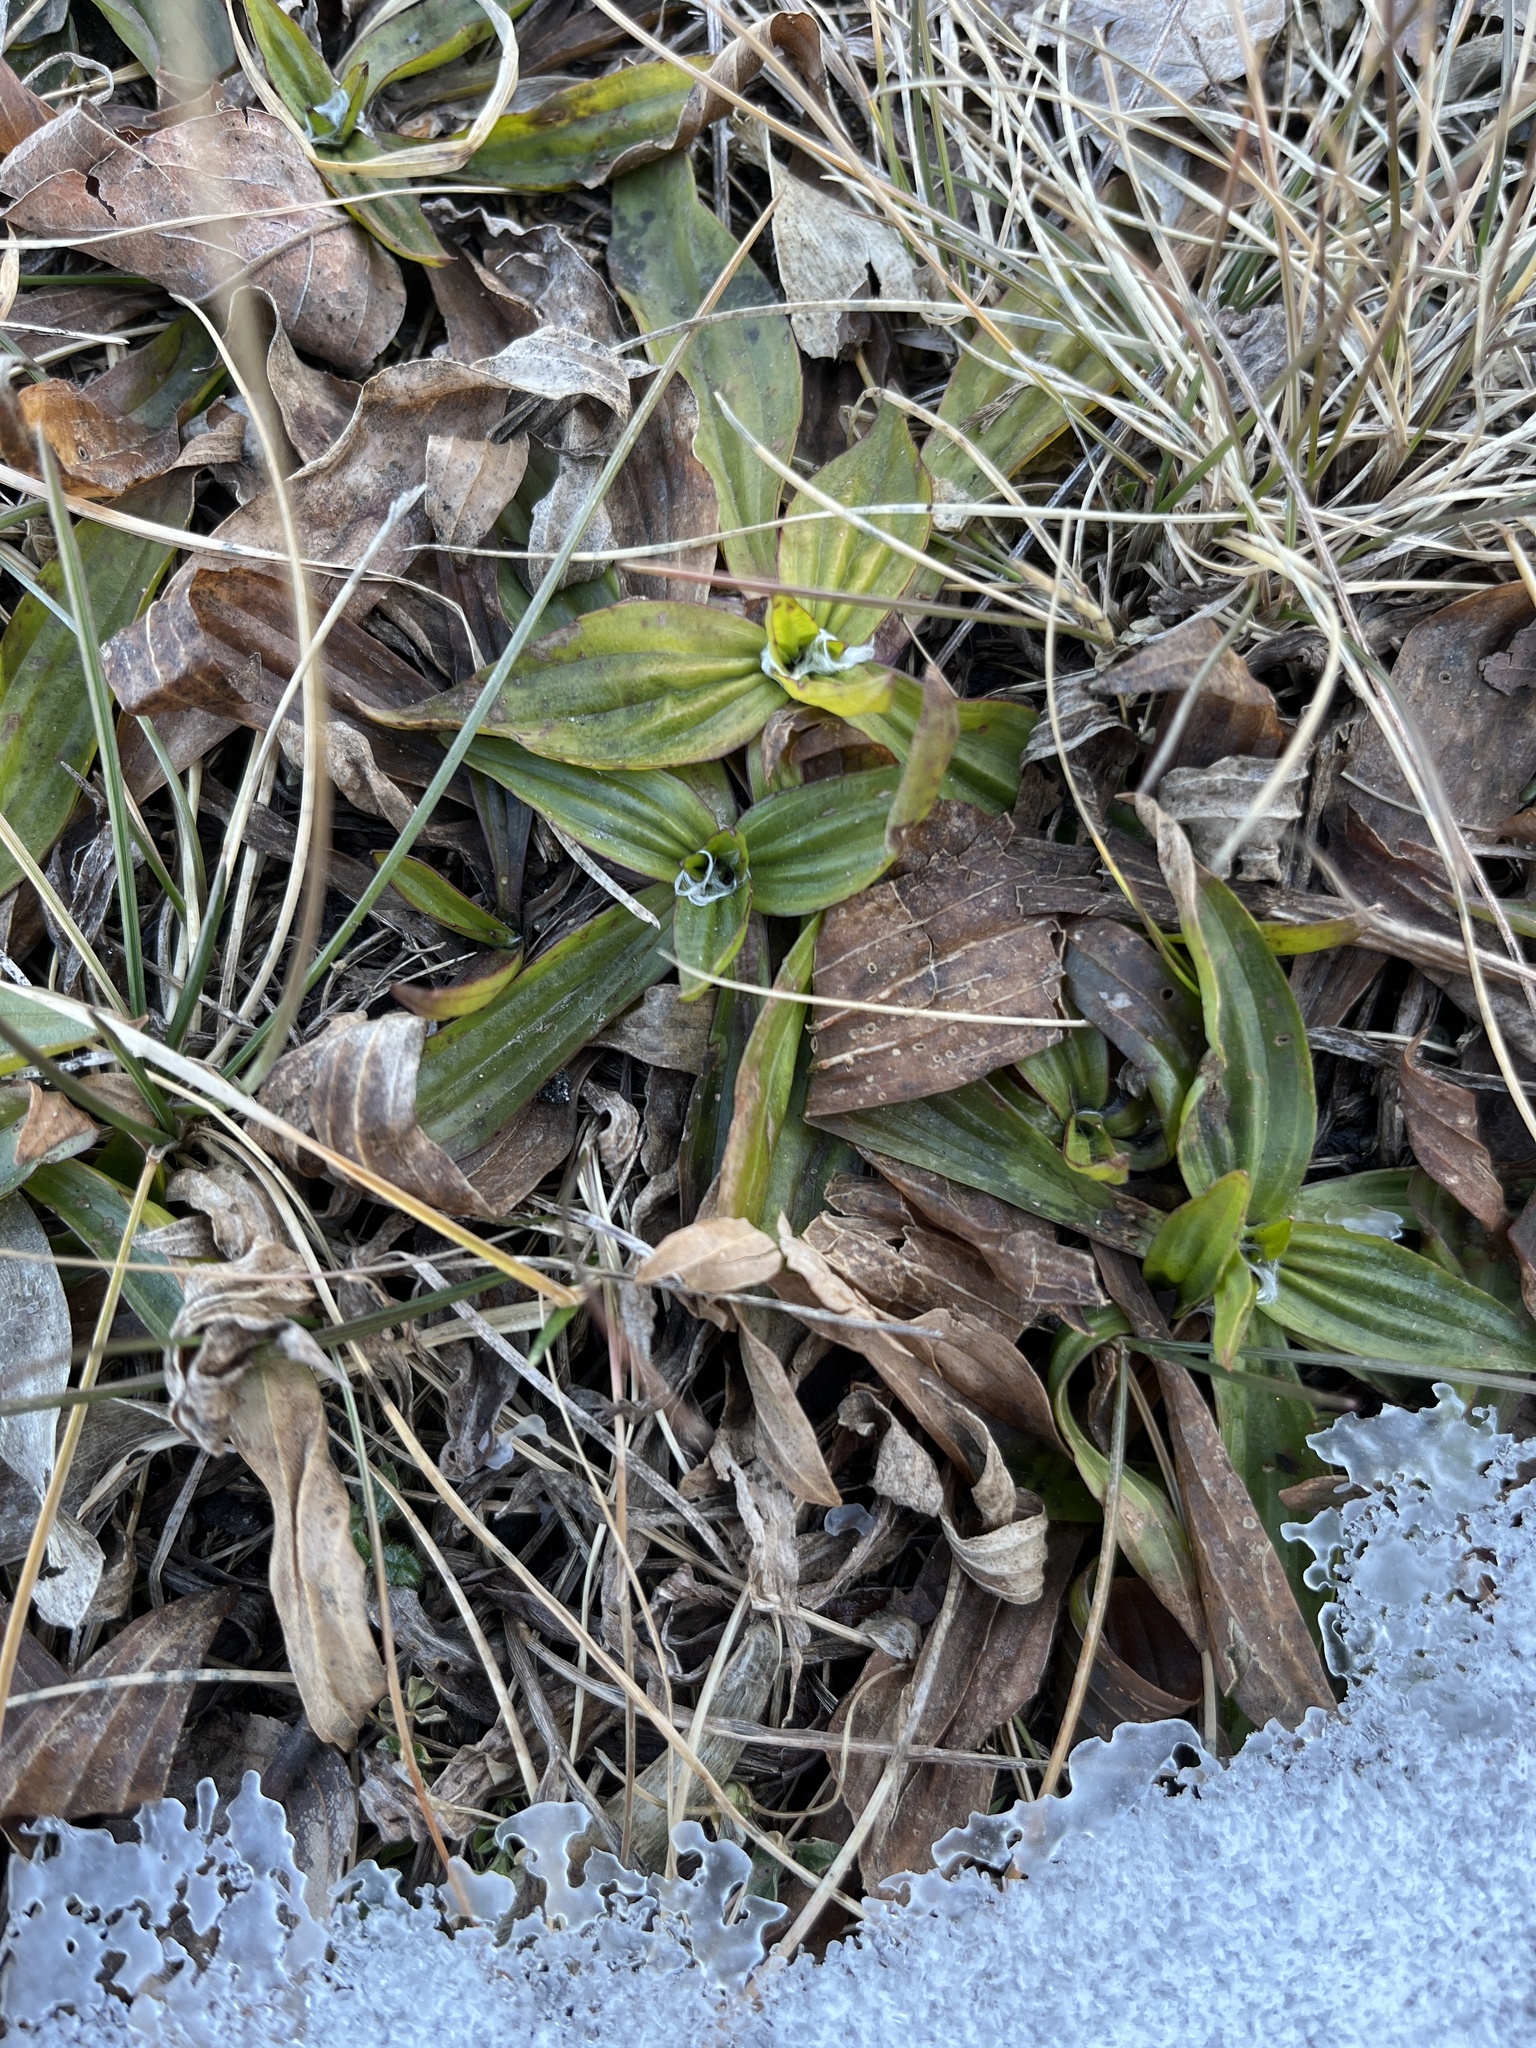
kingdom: Plantae
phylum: Tracheophyta
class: Magnoliopsida
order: Lamiales
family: Plantaginaceae
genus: Plantago
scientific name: Plantago lanceolata
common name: Ribwort plantain
